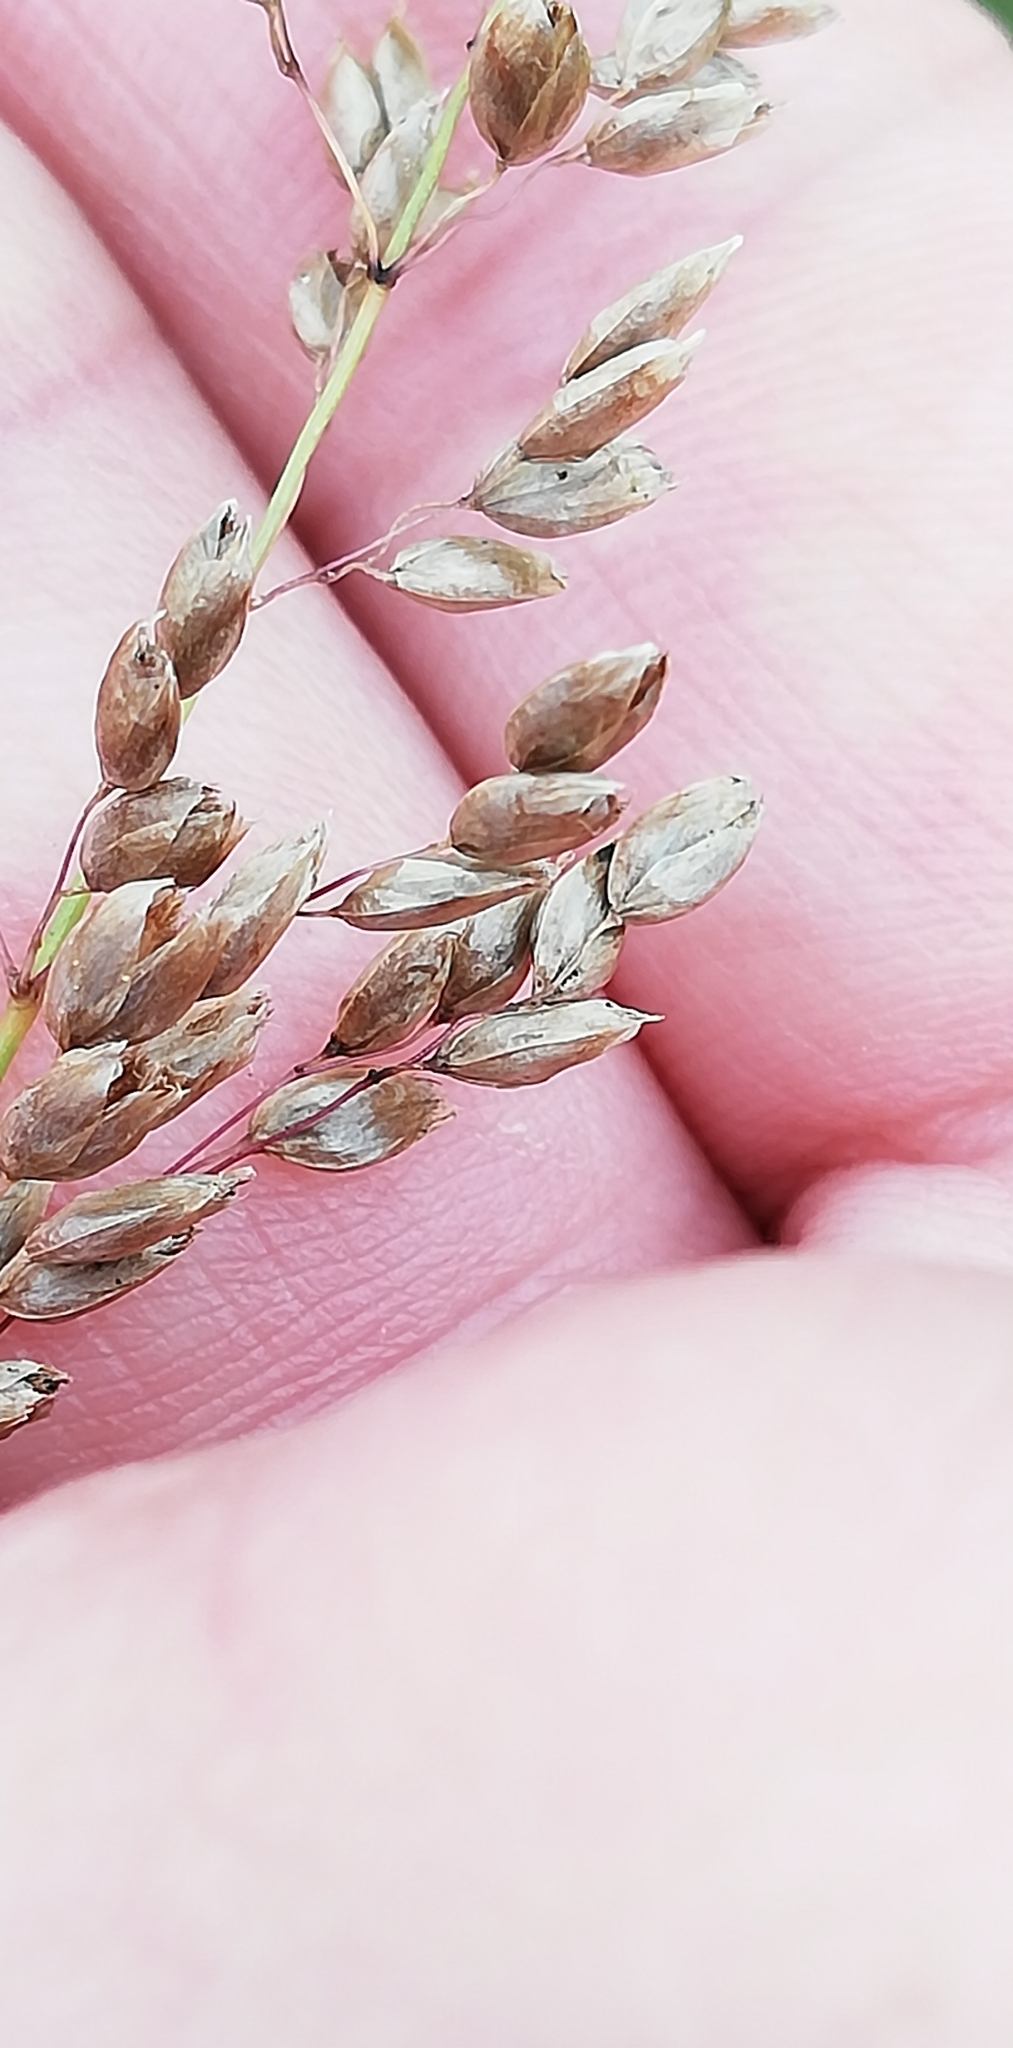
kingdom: Plantae
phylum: Tracheophyta
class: Liliopsida
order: Poales
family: Poaceae
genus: Anthoxanthum
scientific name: Anthoxanthum nitens
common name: Holy grass
